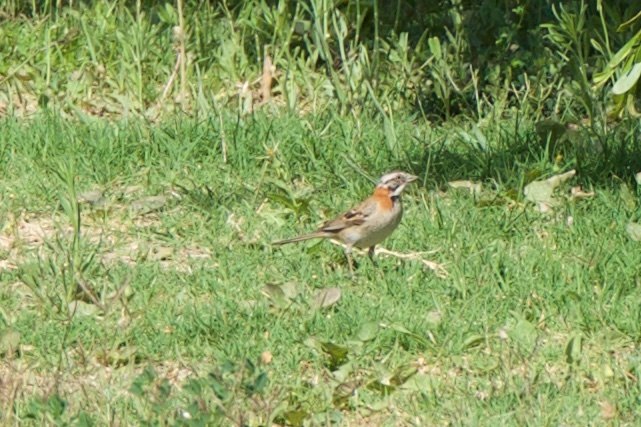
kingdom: Animalia
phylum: Chordata
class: Aves
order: Passeriformes
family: Passerellidae
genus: Zonotrichia
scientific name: Zonotrichia capensis
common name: Rufous-collared sparrow
